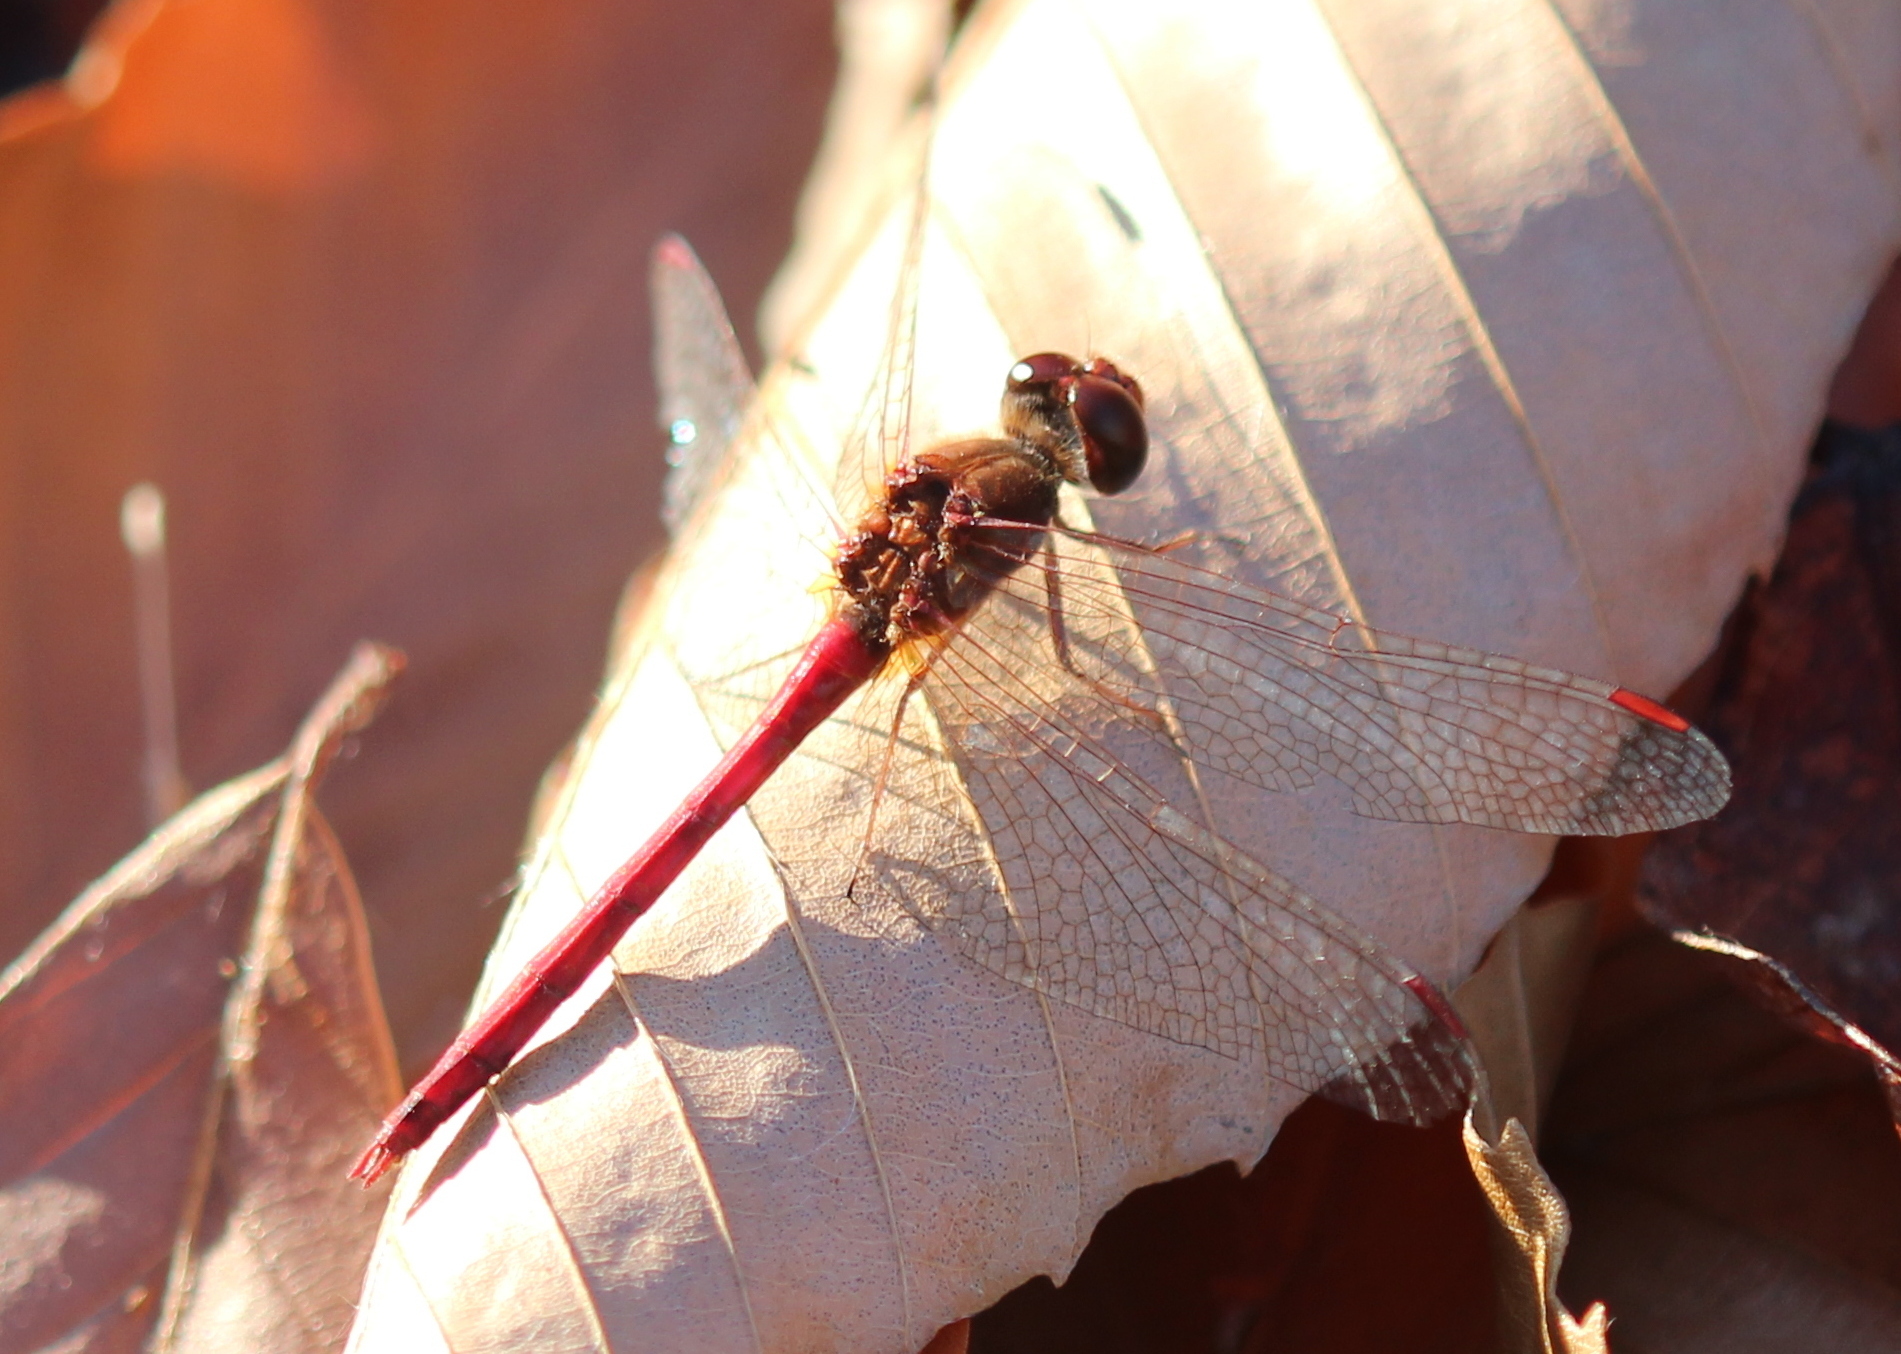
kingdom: Animalia
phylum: Arthropoda
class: Insecta
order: Odonata
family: Libellulidae
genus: Sympetrum
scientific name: Sympetrum vicinum
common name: Autumn meadowhawk
